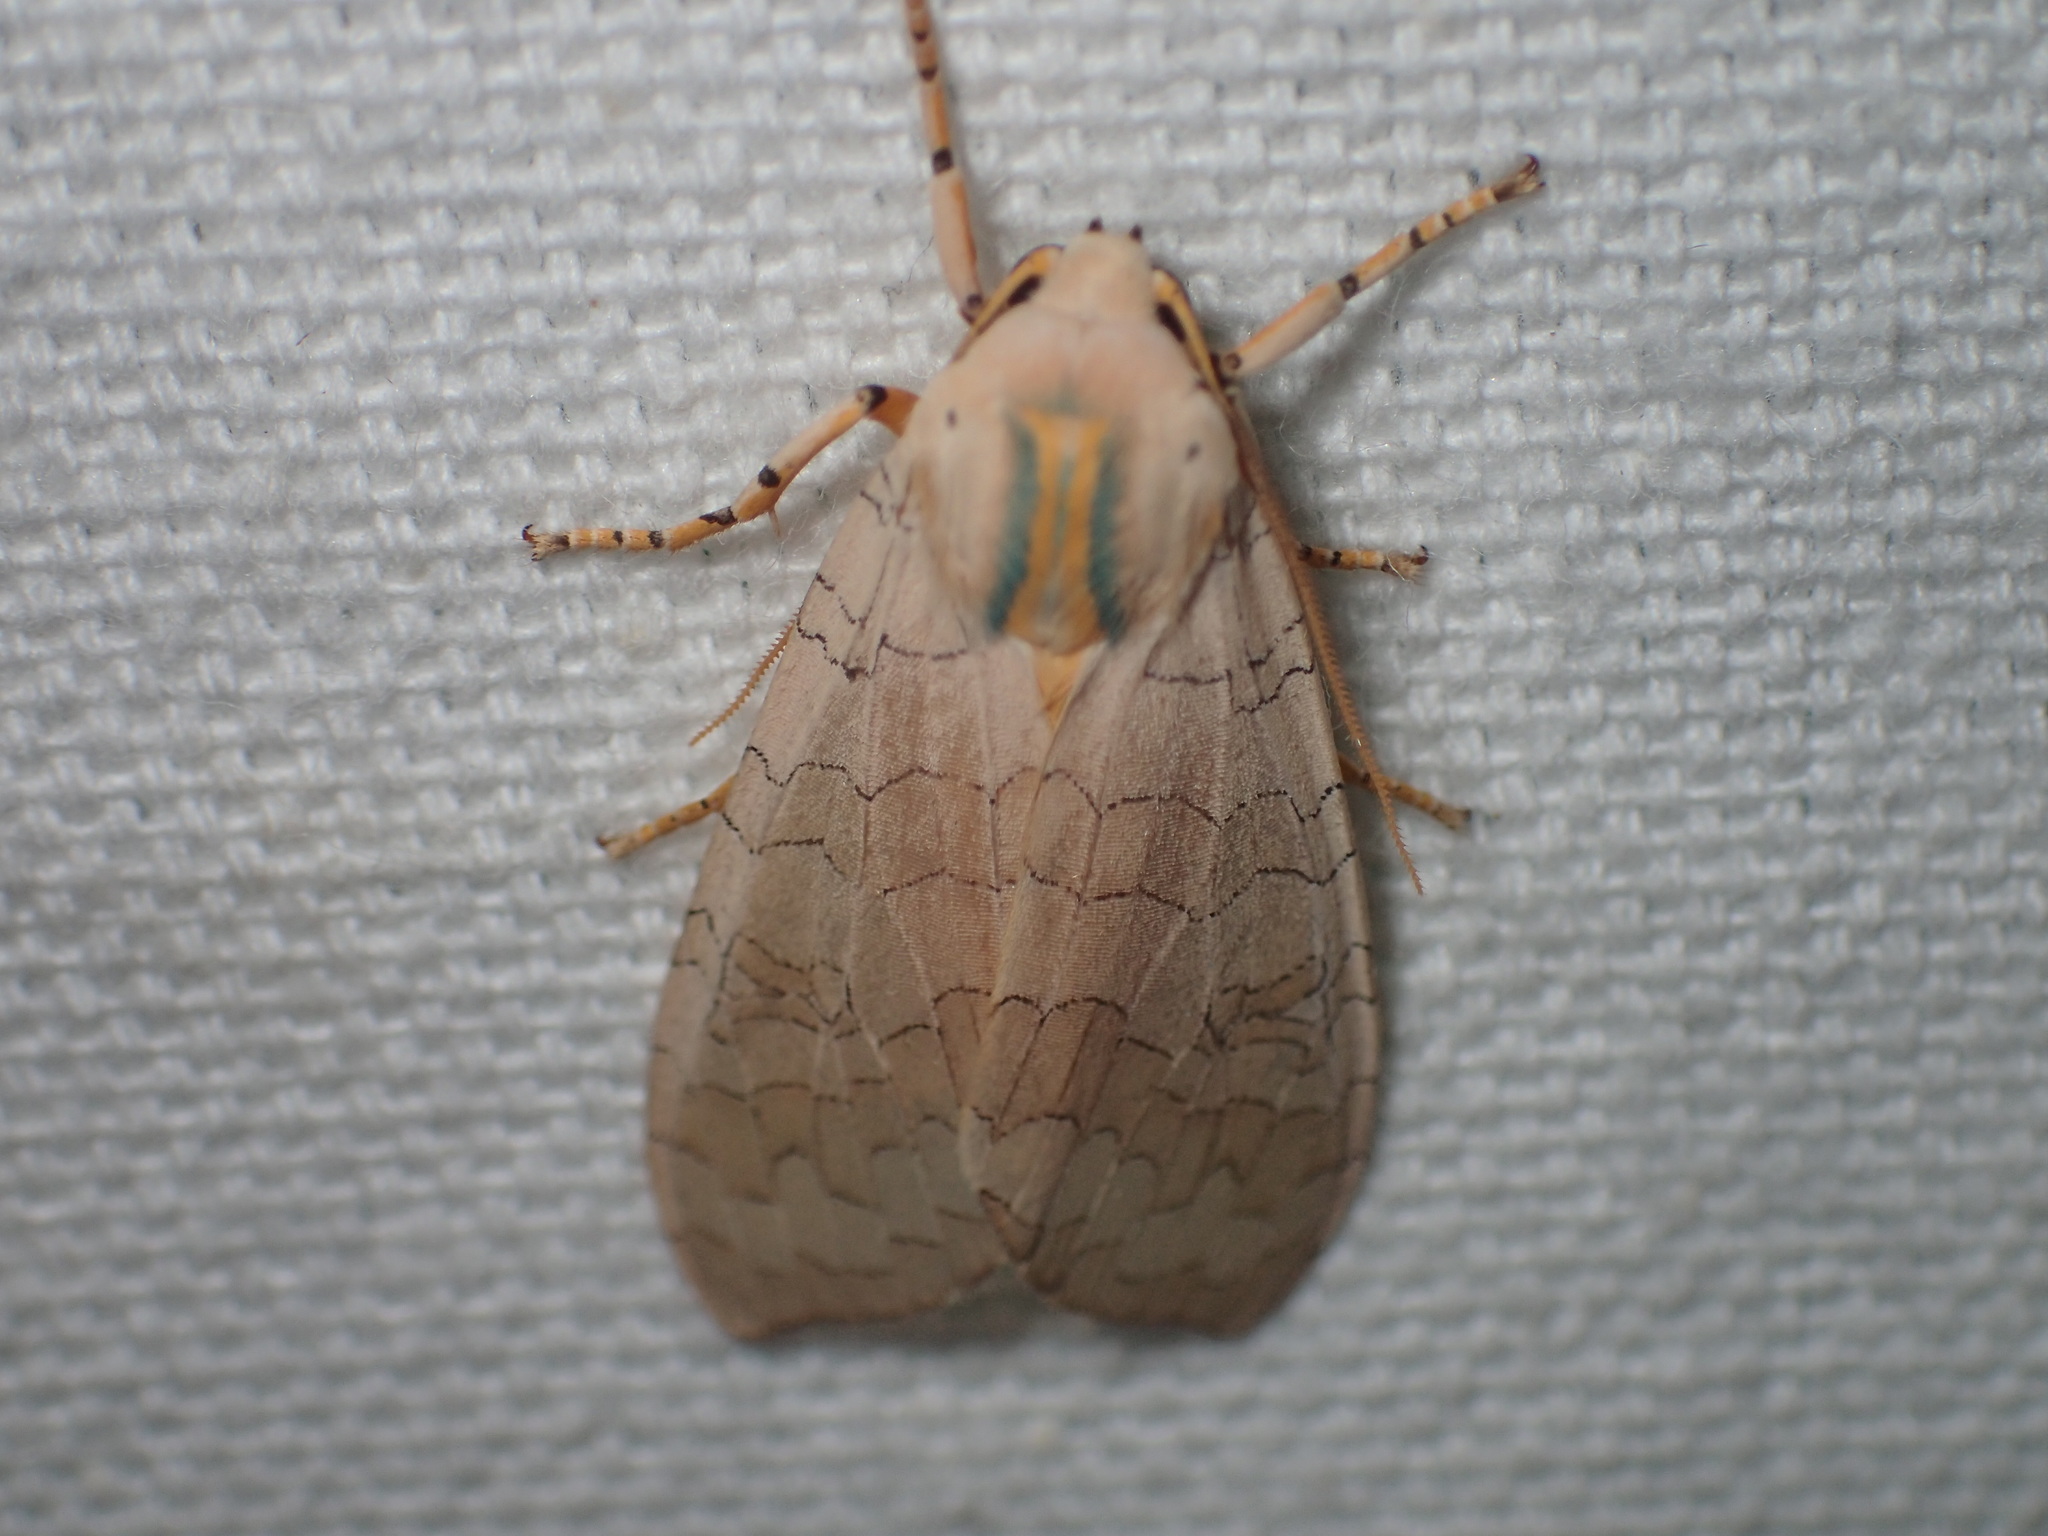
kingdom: Animalia
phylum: Arthropoda
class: Insecta
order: Lepidoptera
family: Erebidae
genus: Halysidota
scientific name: Halysidota
